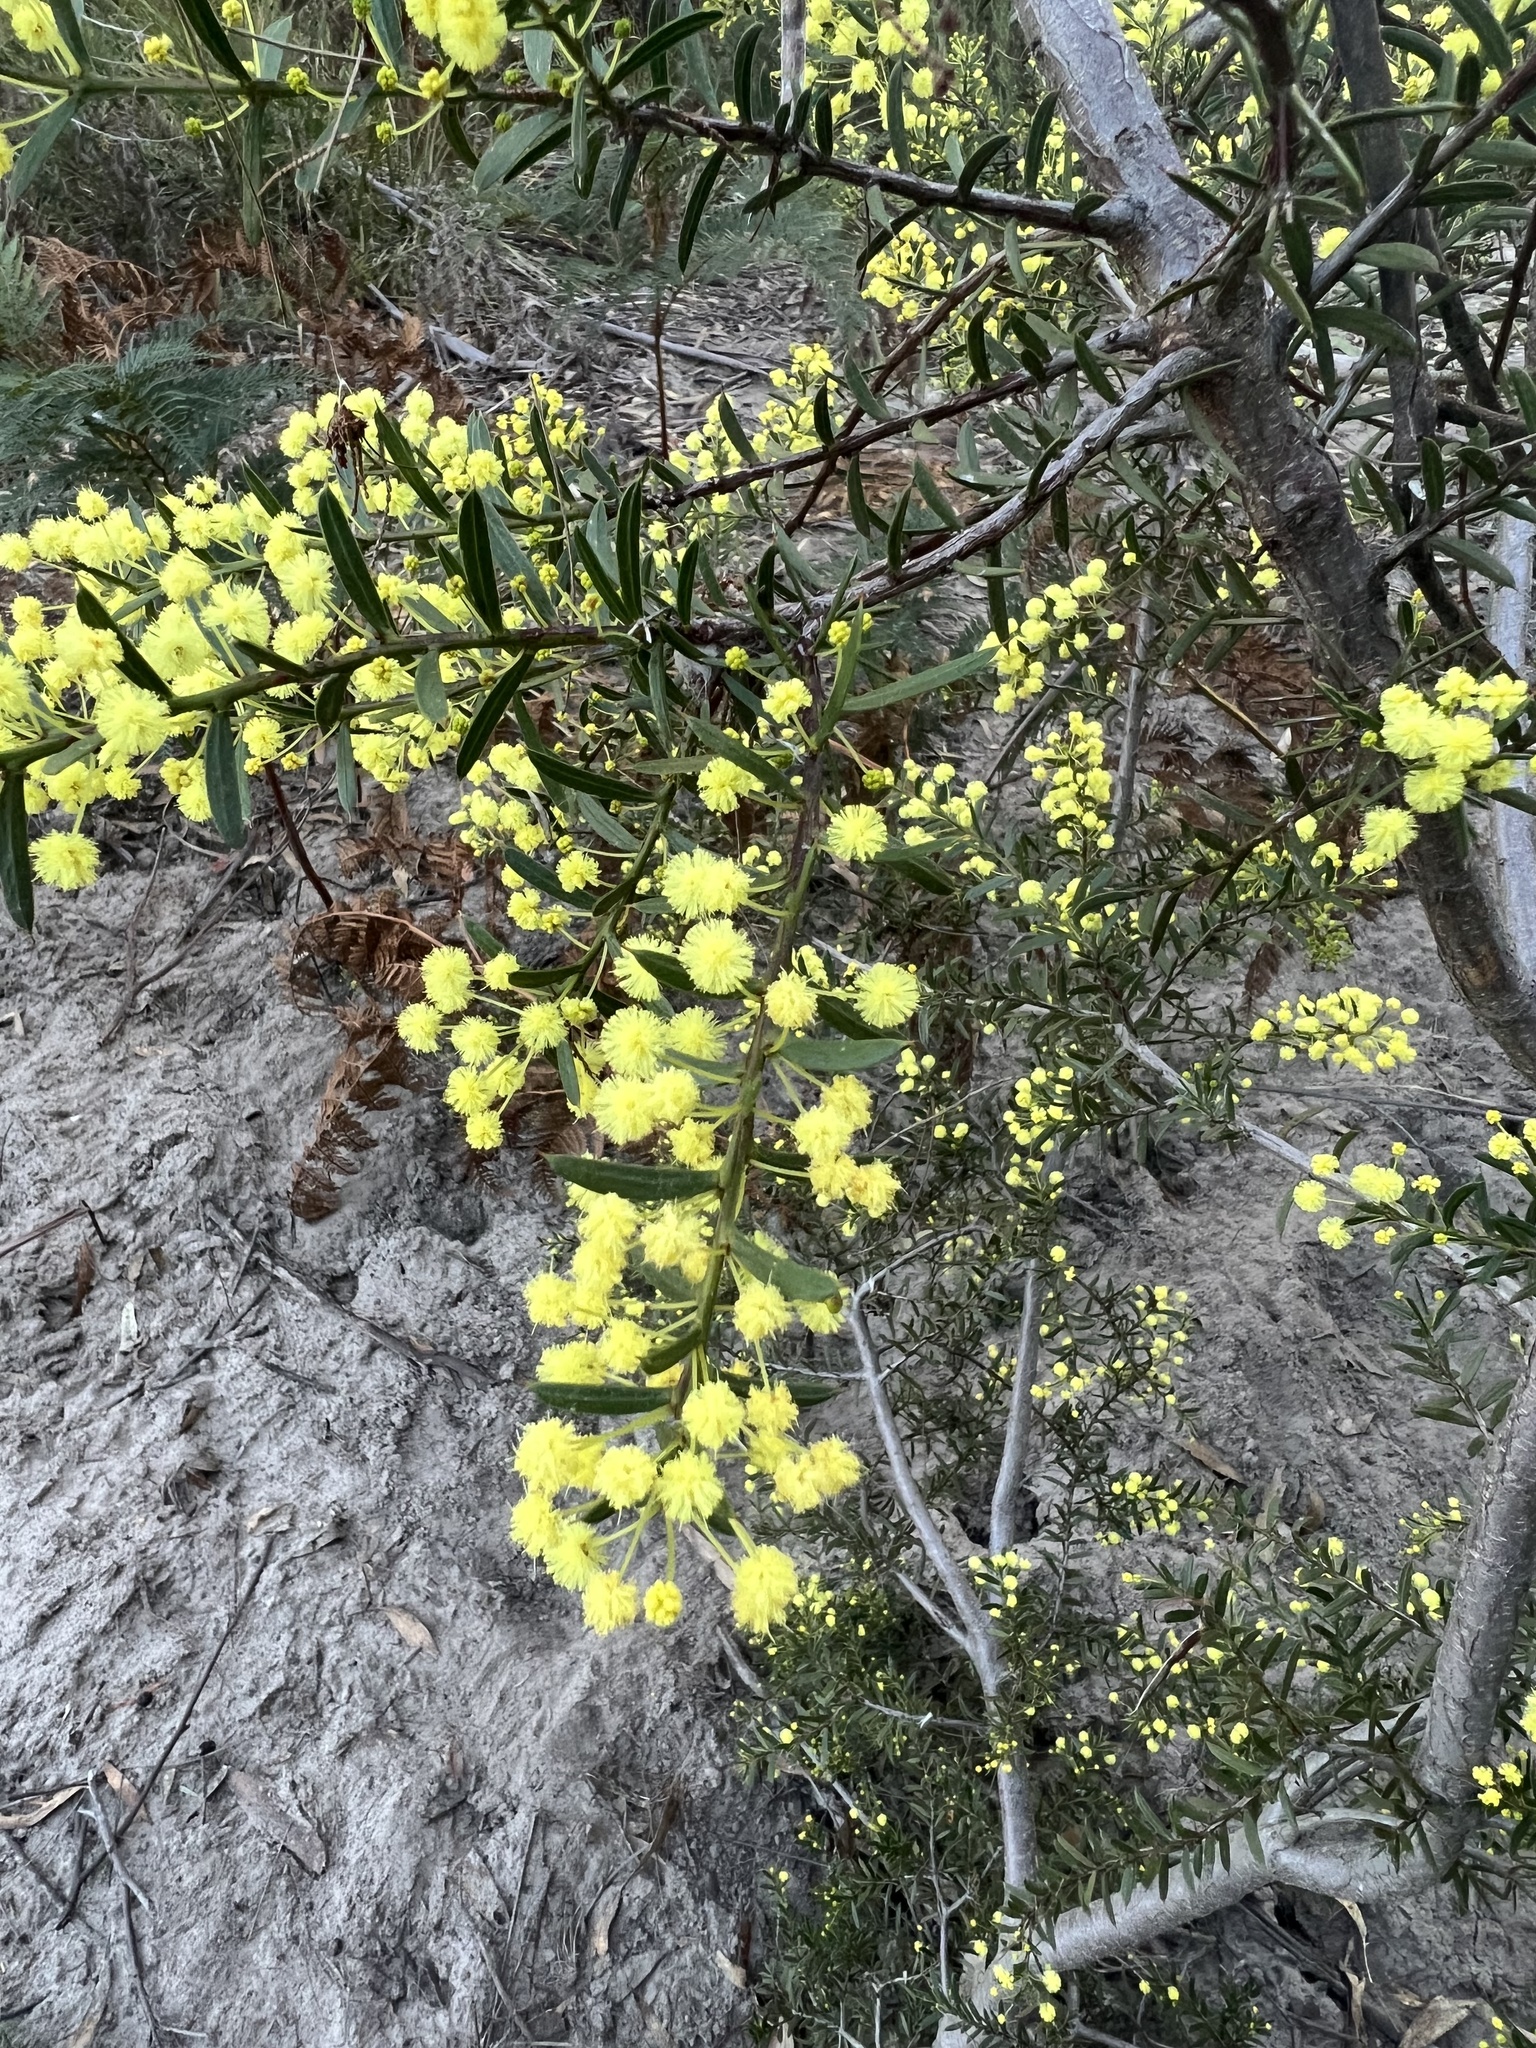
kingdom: Plantae
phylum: Tracheophyta
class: Magnoliopsida
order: Fabales
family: Fabaceae
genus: Acacia
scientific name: Acacia genistifolia
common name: Early wattle
